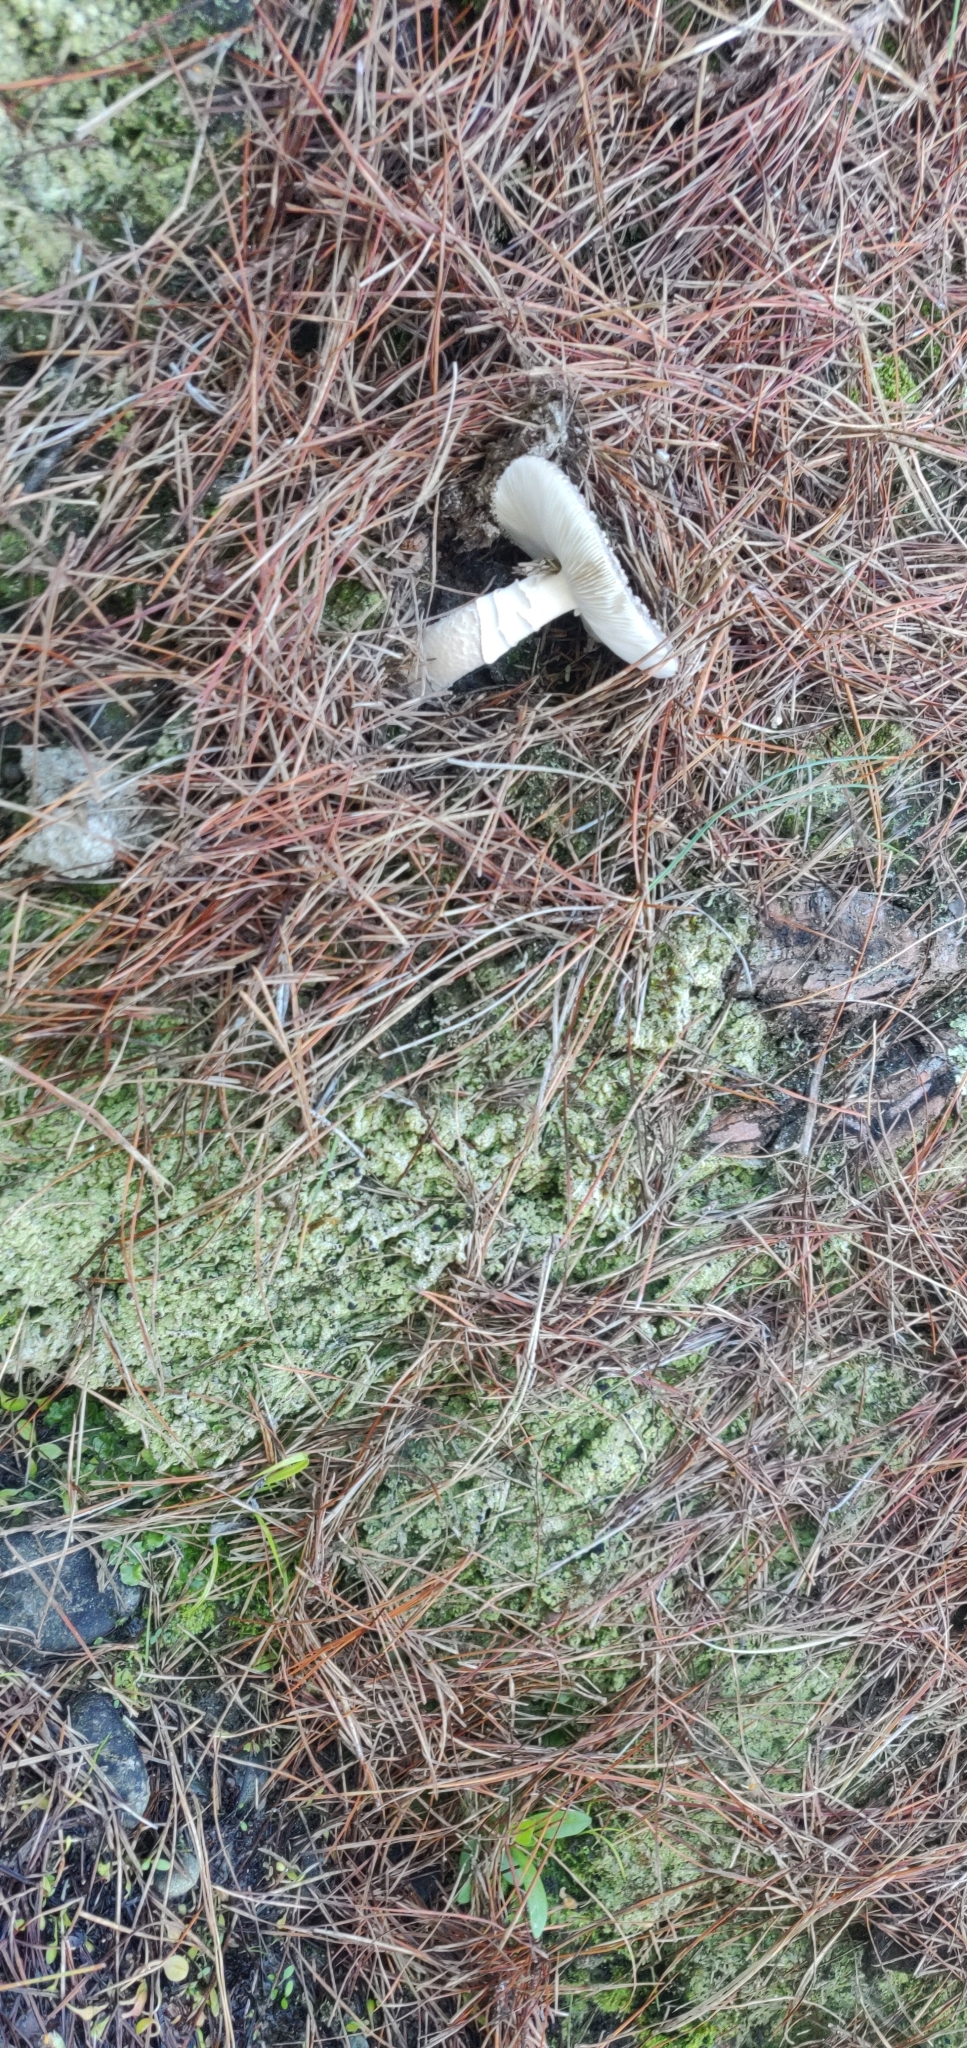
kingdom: Fungi
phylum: Basidiomycota
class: Agaricomycetes
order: Agaricales
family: Amanitaceae
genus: Amanita
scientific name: Amanita excelsa
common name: European false blusher
